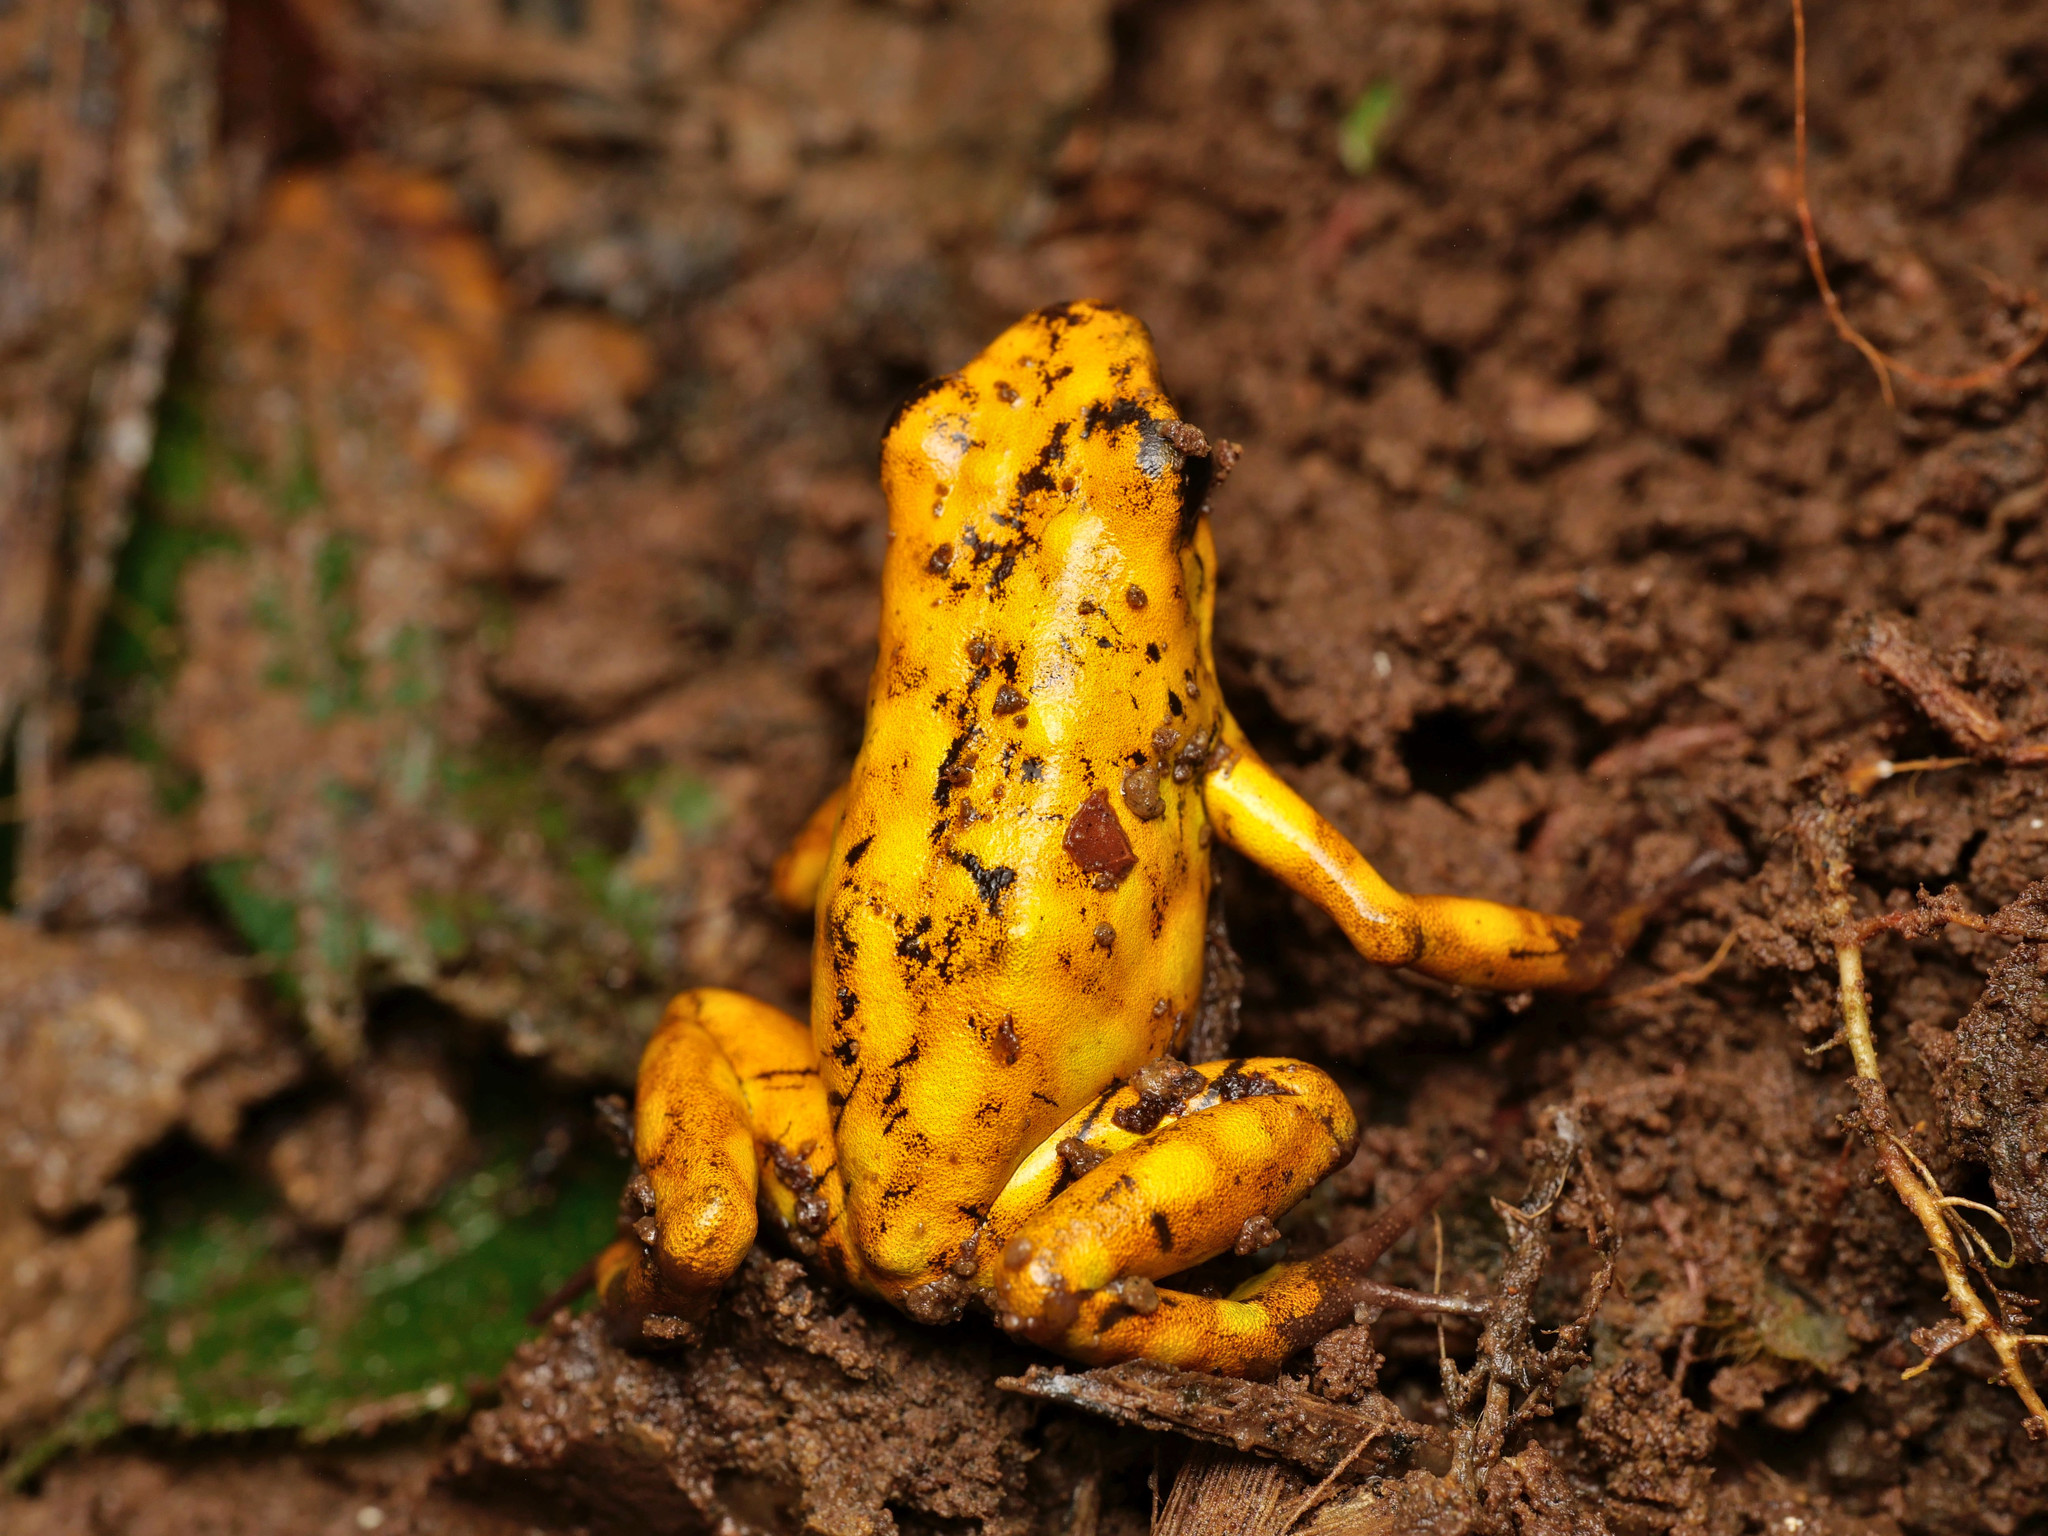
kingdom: Animalia
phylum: Chordata
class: Amphibia
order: Anura
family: Dendrobatidae
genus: Oophaga
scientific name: Oophaga sylvatica
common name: Little-devil poison frog
